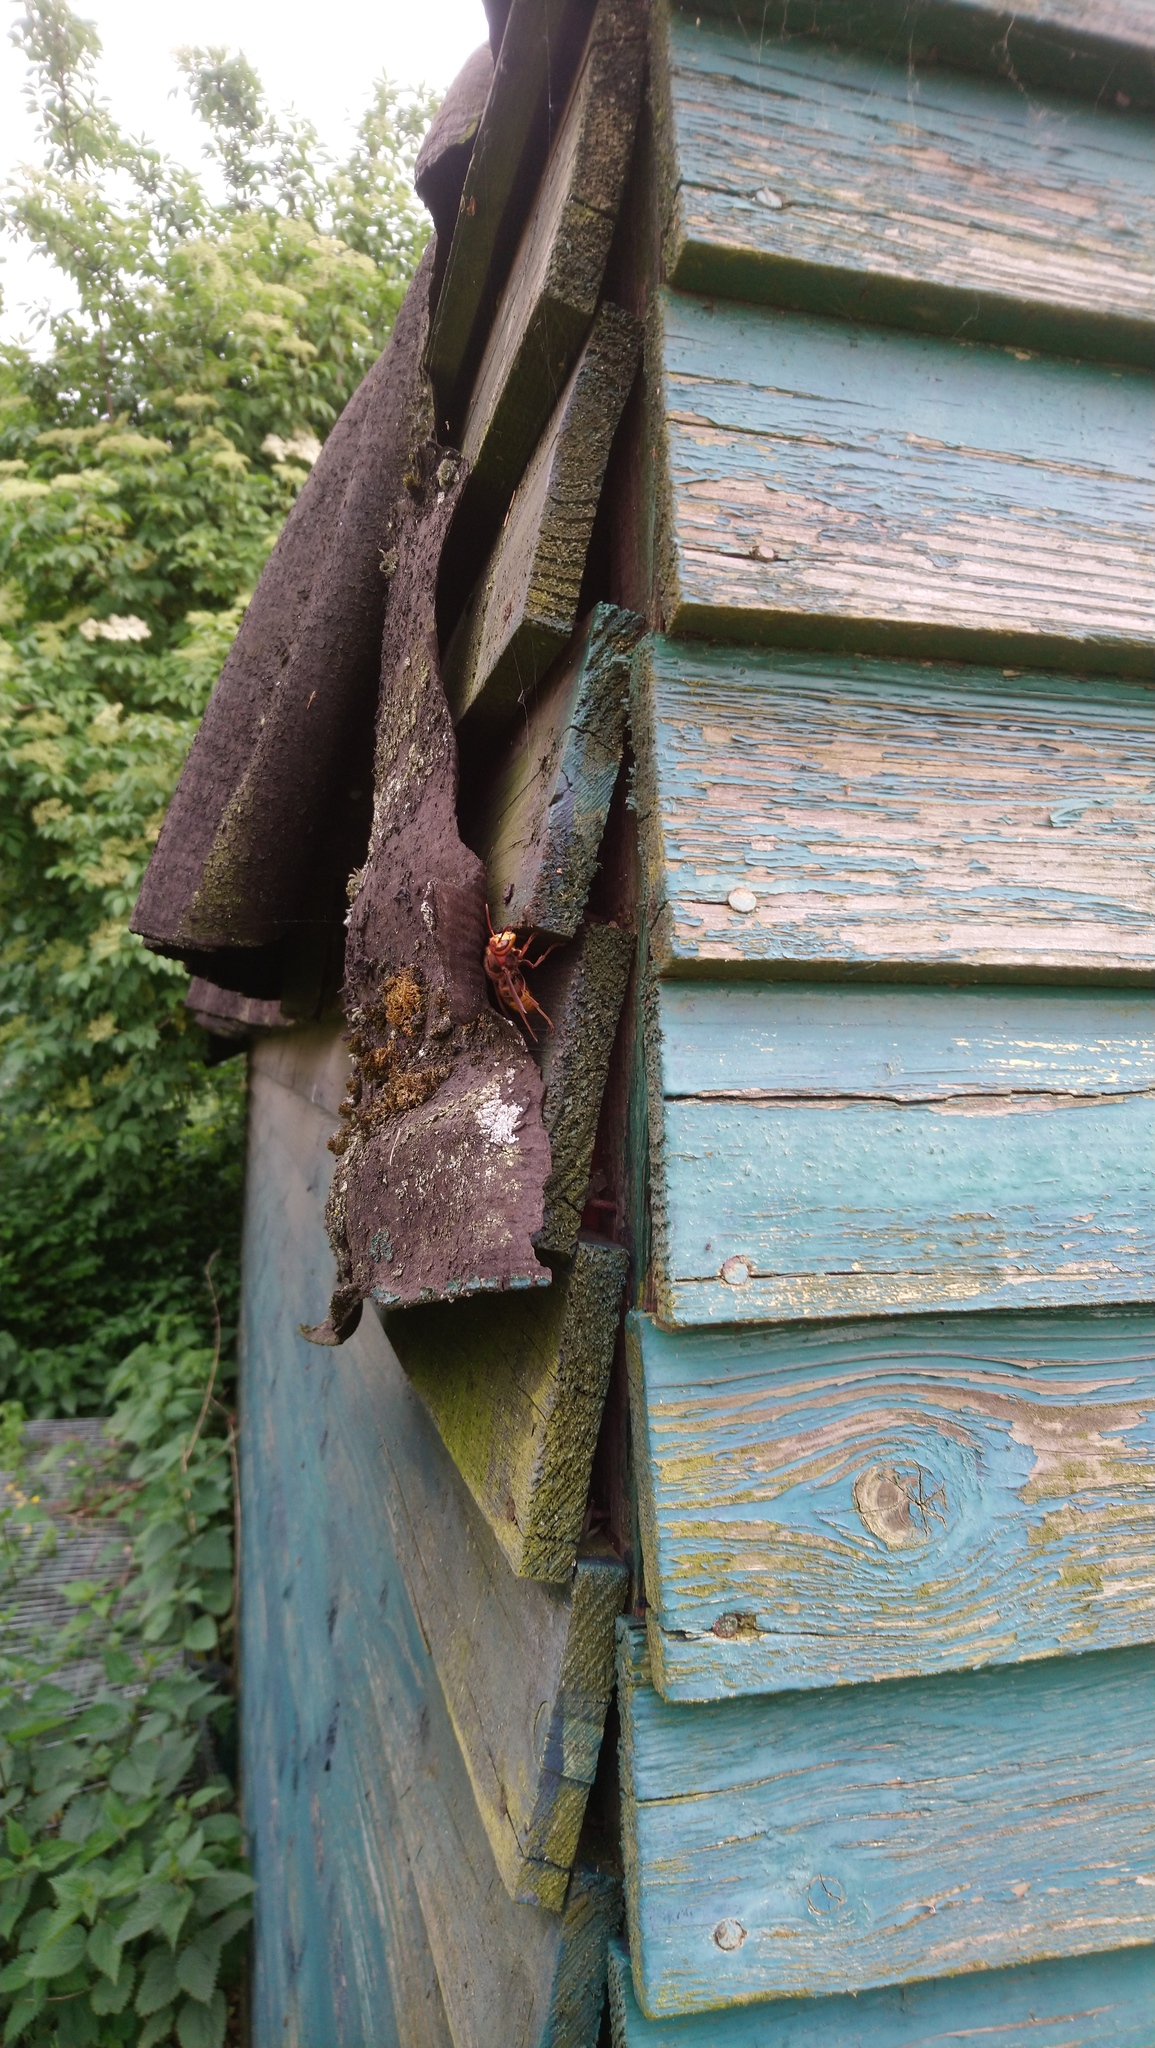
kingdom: Animalia
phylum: Arthropoda
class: Insecta
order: Hymenoptera
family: Vespidae
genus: Vespa
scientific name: Vespa crabro
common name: Hornet
